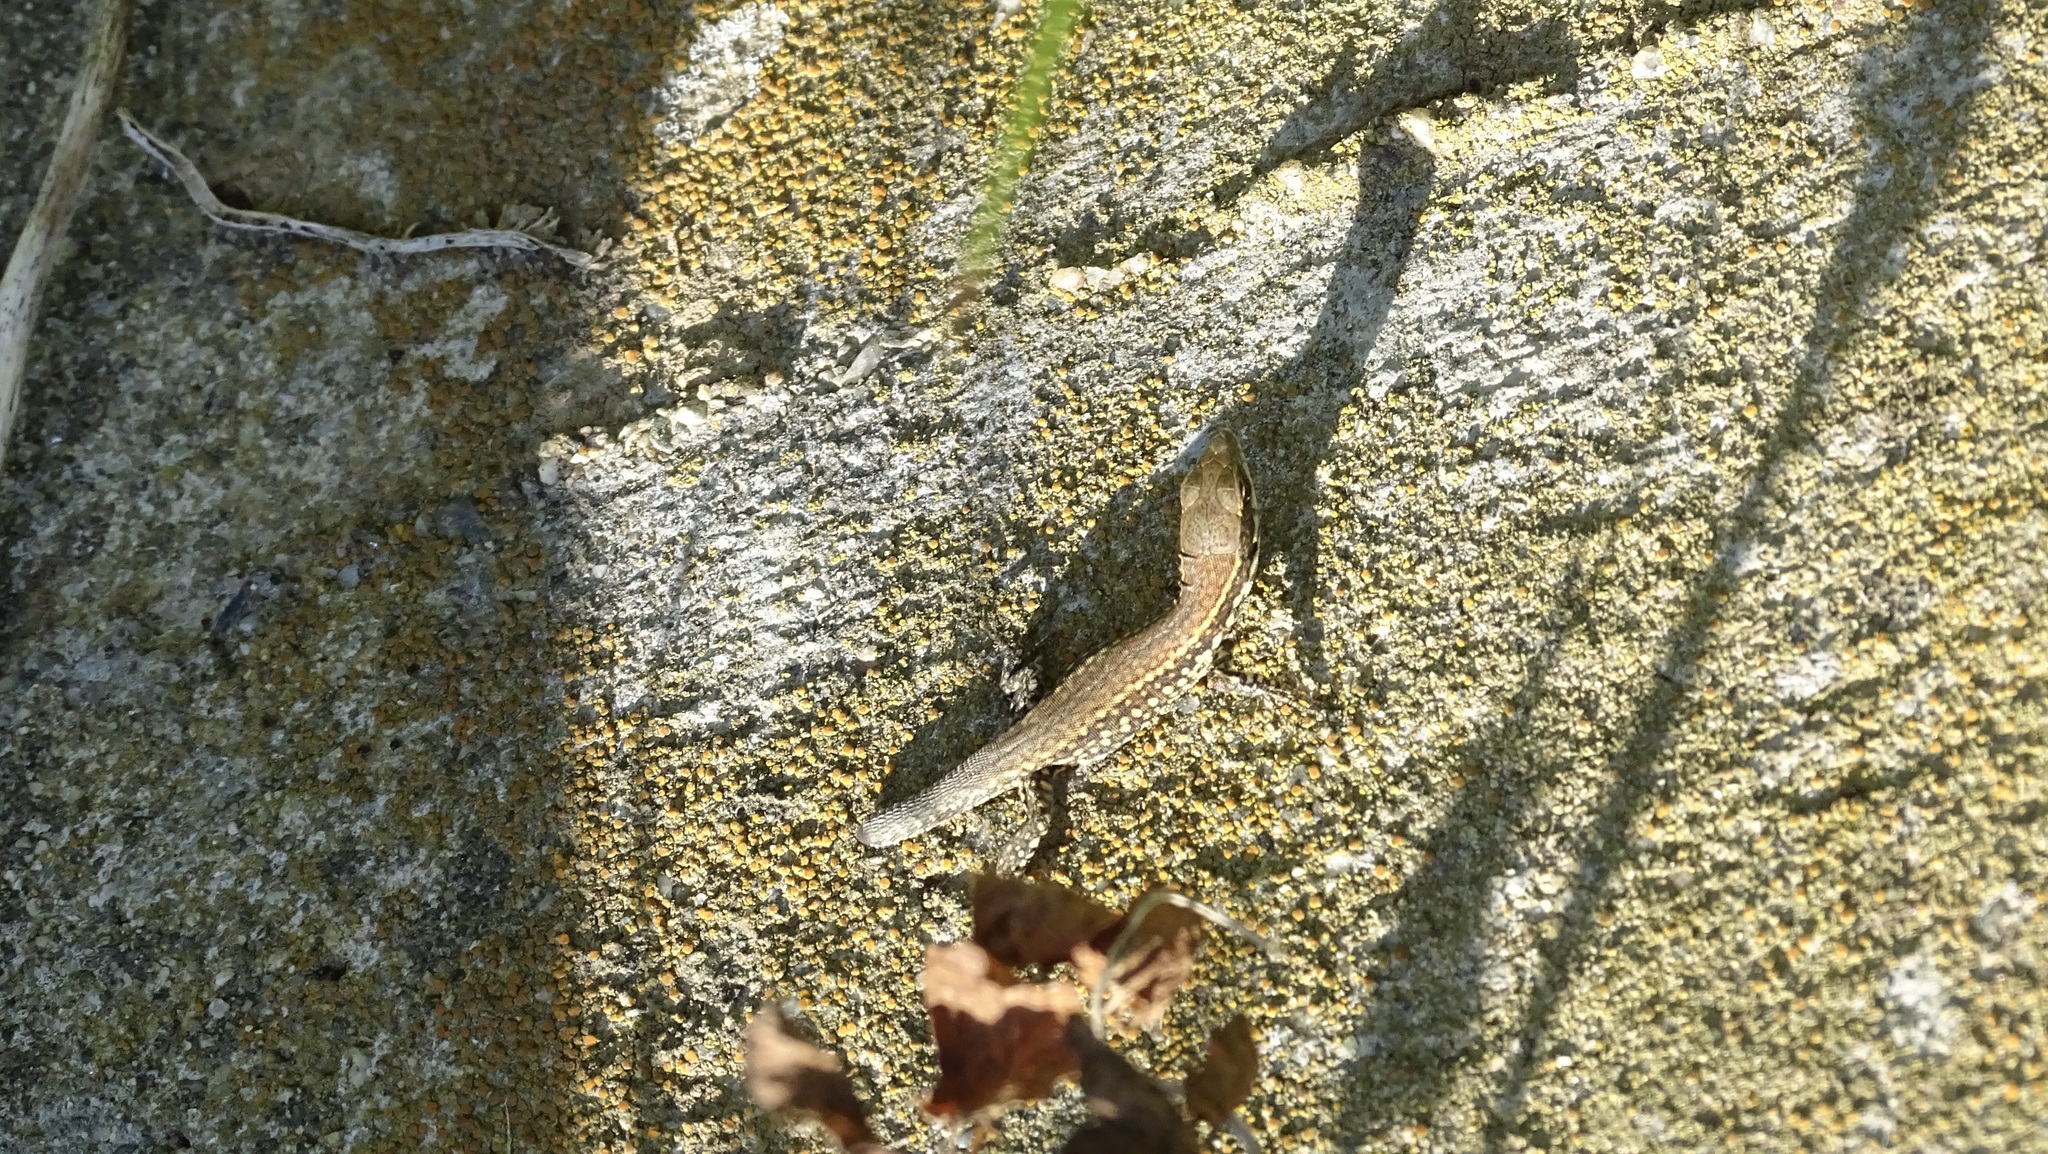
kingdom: Animalia
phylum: Chordata
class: Squamata
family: Lacertidae
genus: Podarcis
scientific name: Podarcis muralis
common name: Common wall lizard
